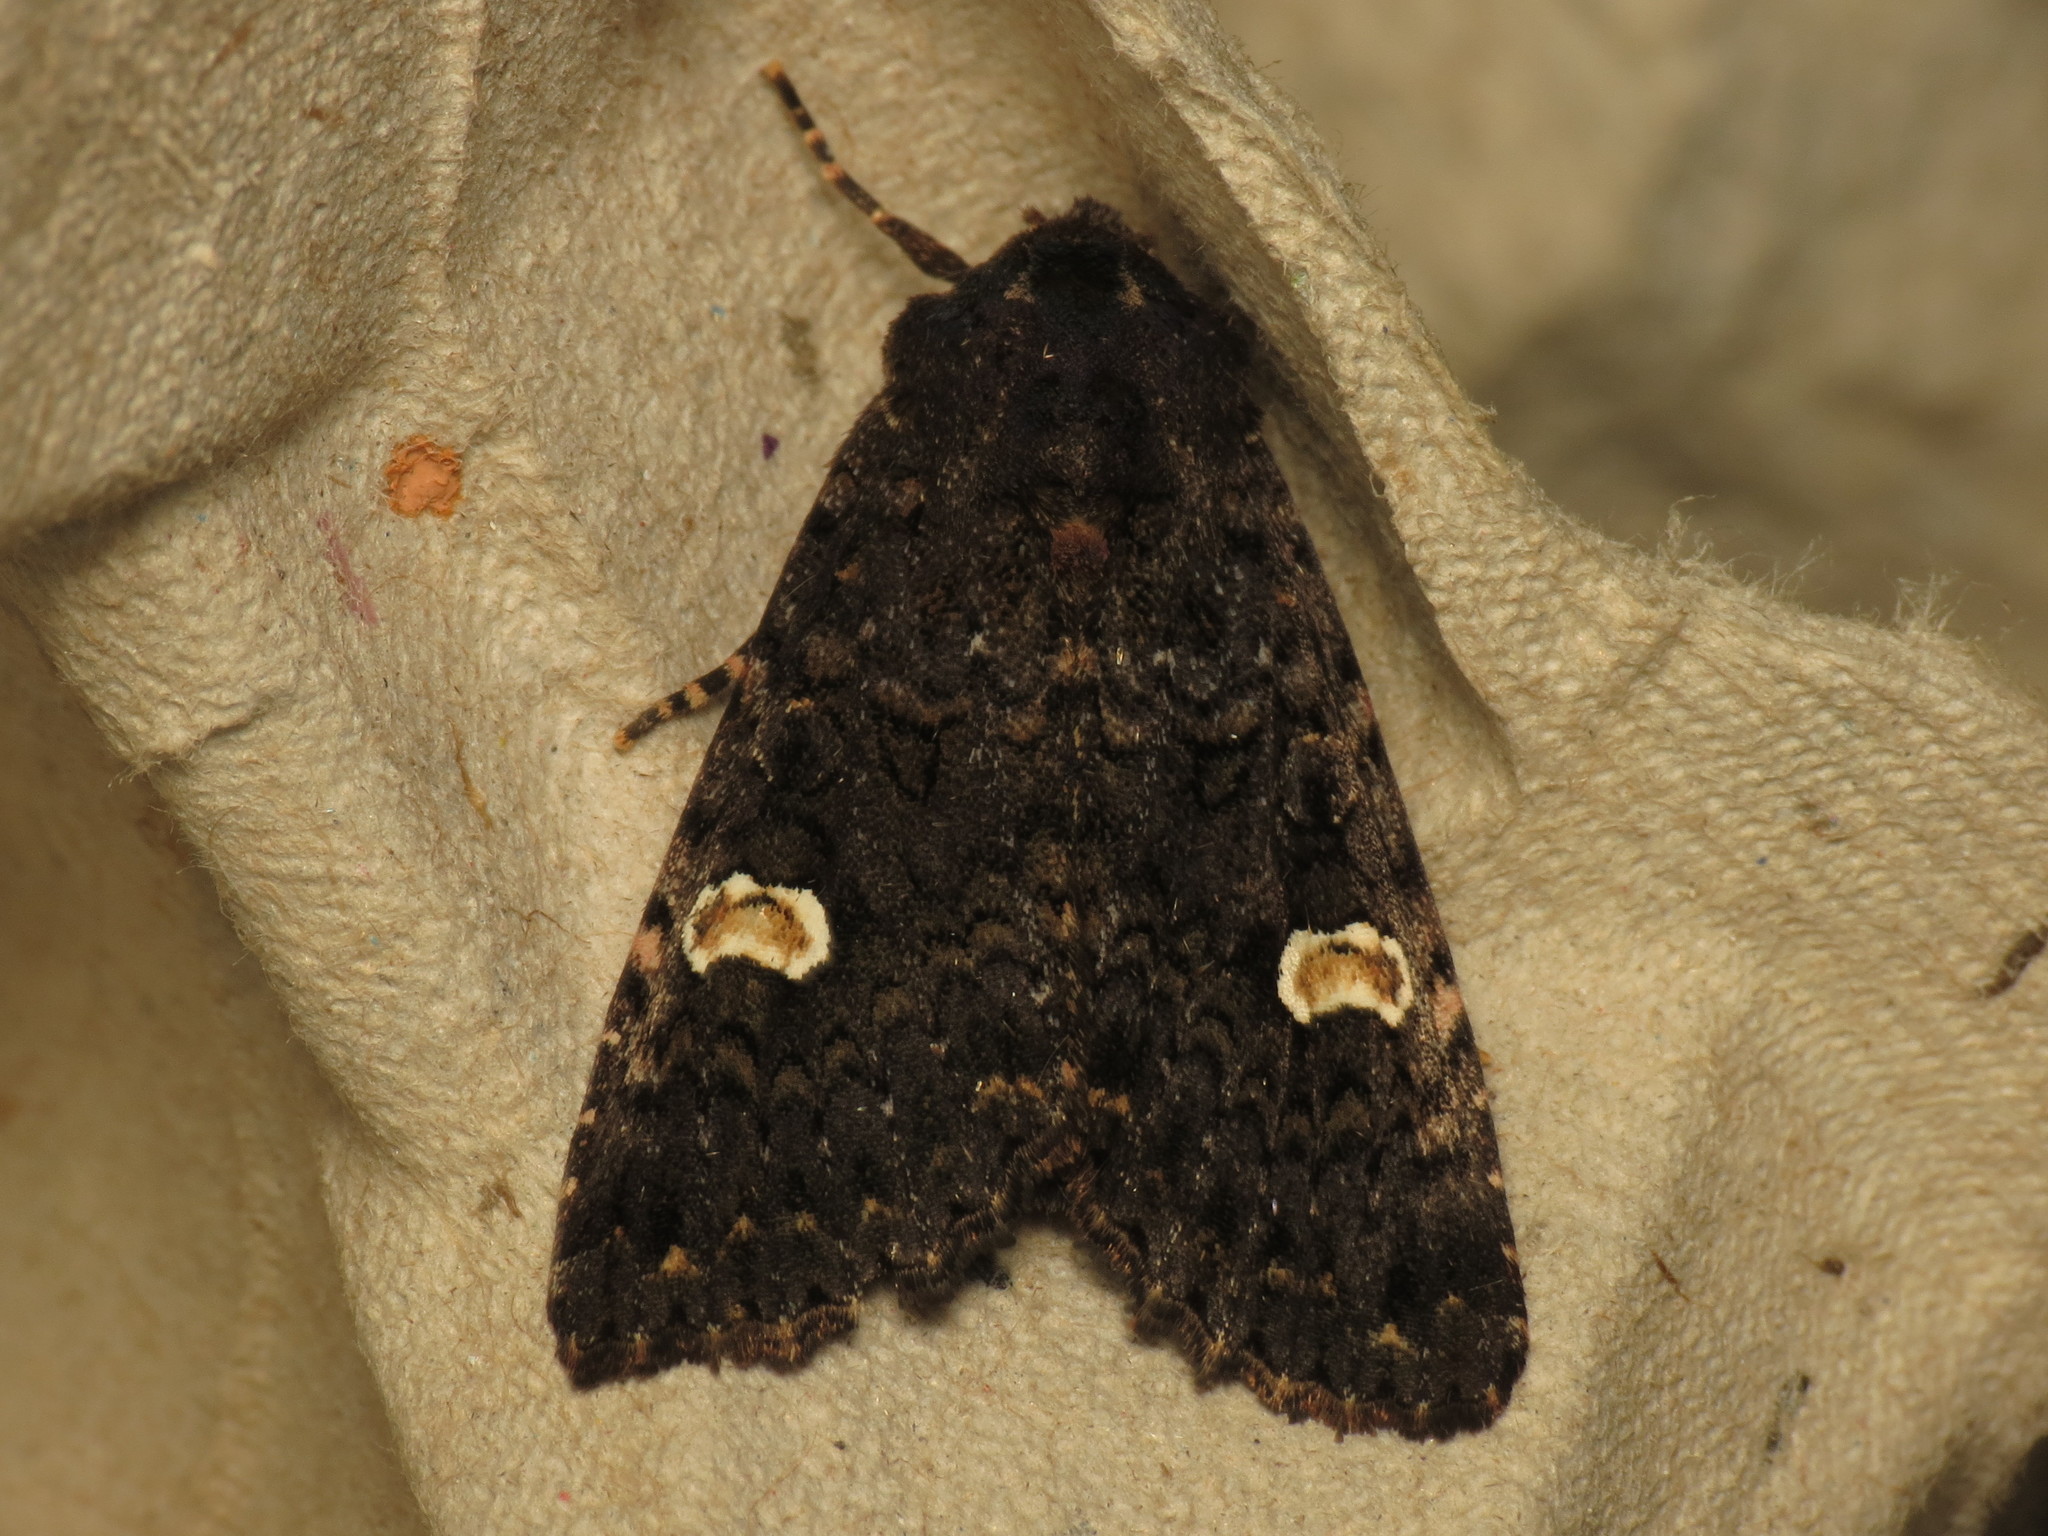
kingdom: Animalia
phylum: Arthropoda
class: Insecta
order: Lepidoptera
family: Noctuidae
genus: Melanchra
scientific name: Melanchra persicariae
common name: Dot moth
